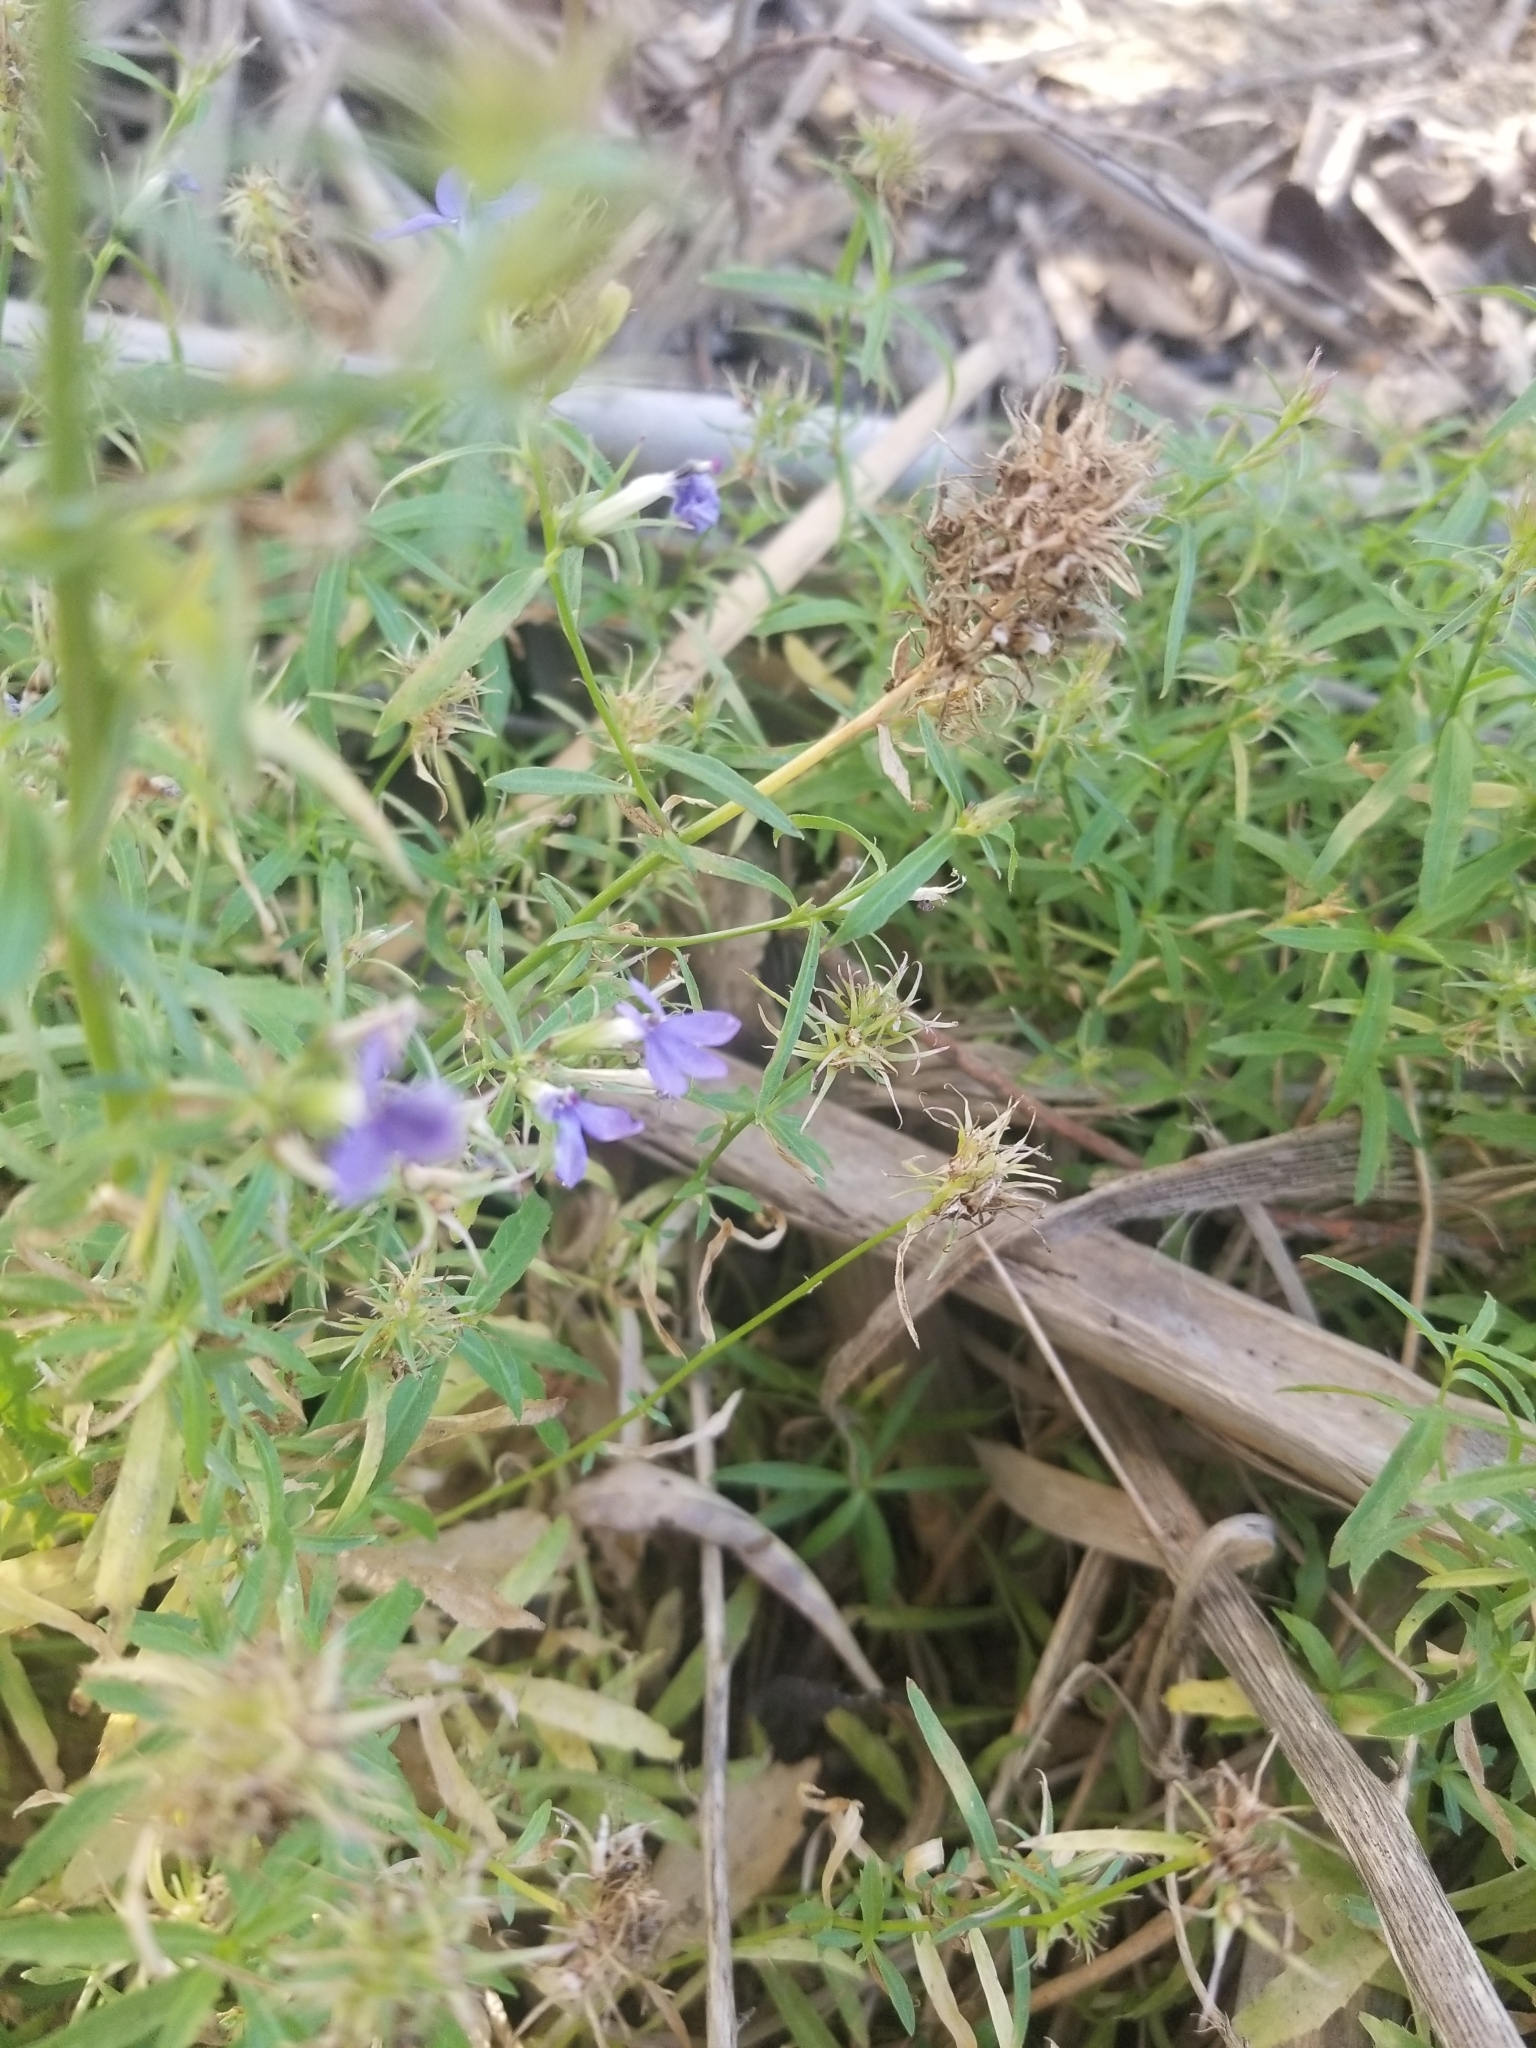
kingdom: Plantae
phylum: Tracheophyta
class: Magnoliopsida
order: Asterales
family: Campanulaceae
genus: Palmerella
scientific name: Palmerella debilis
